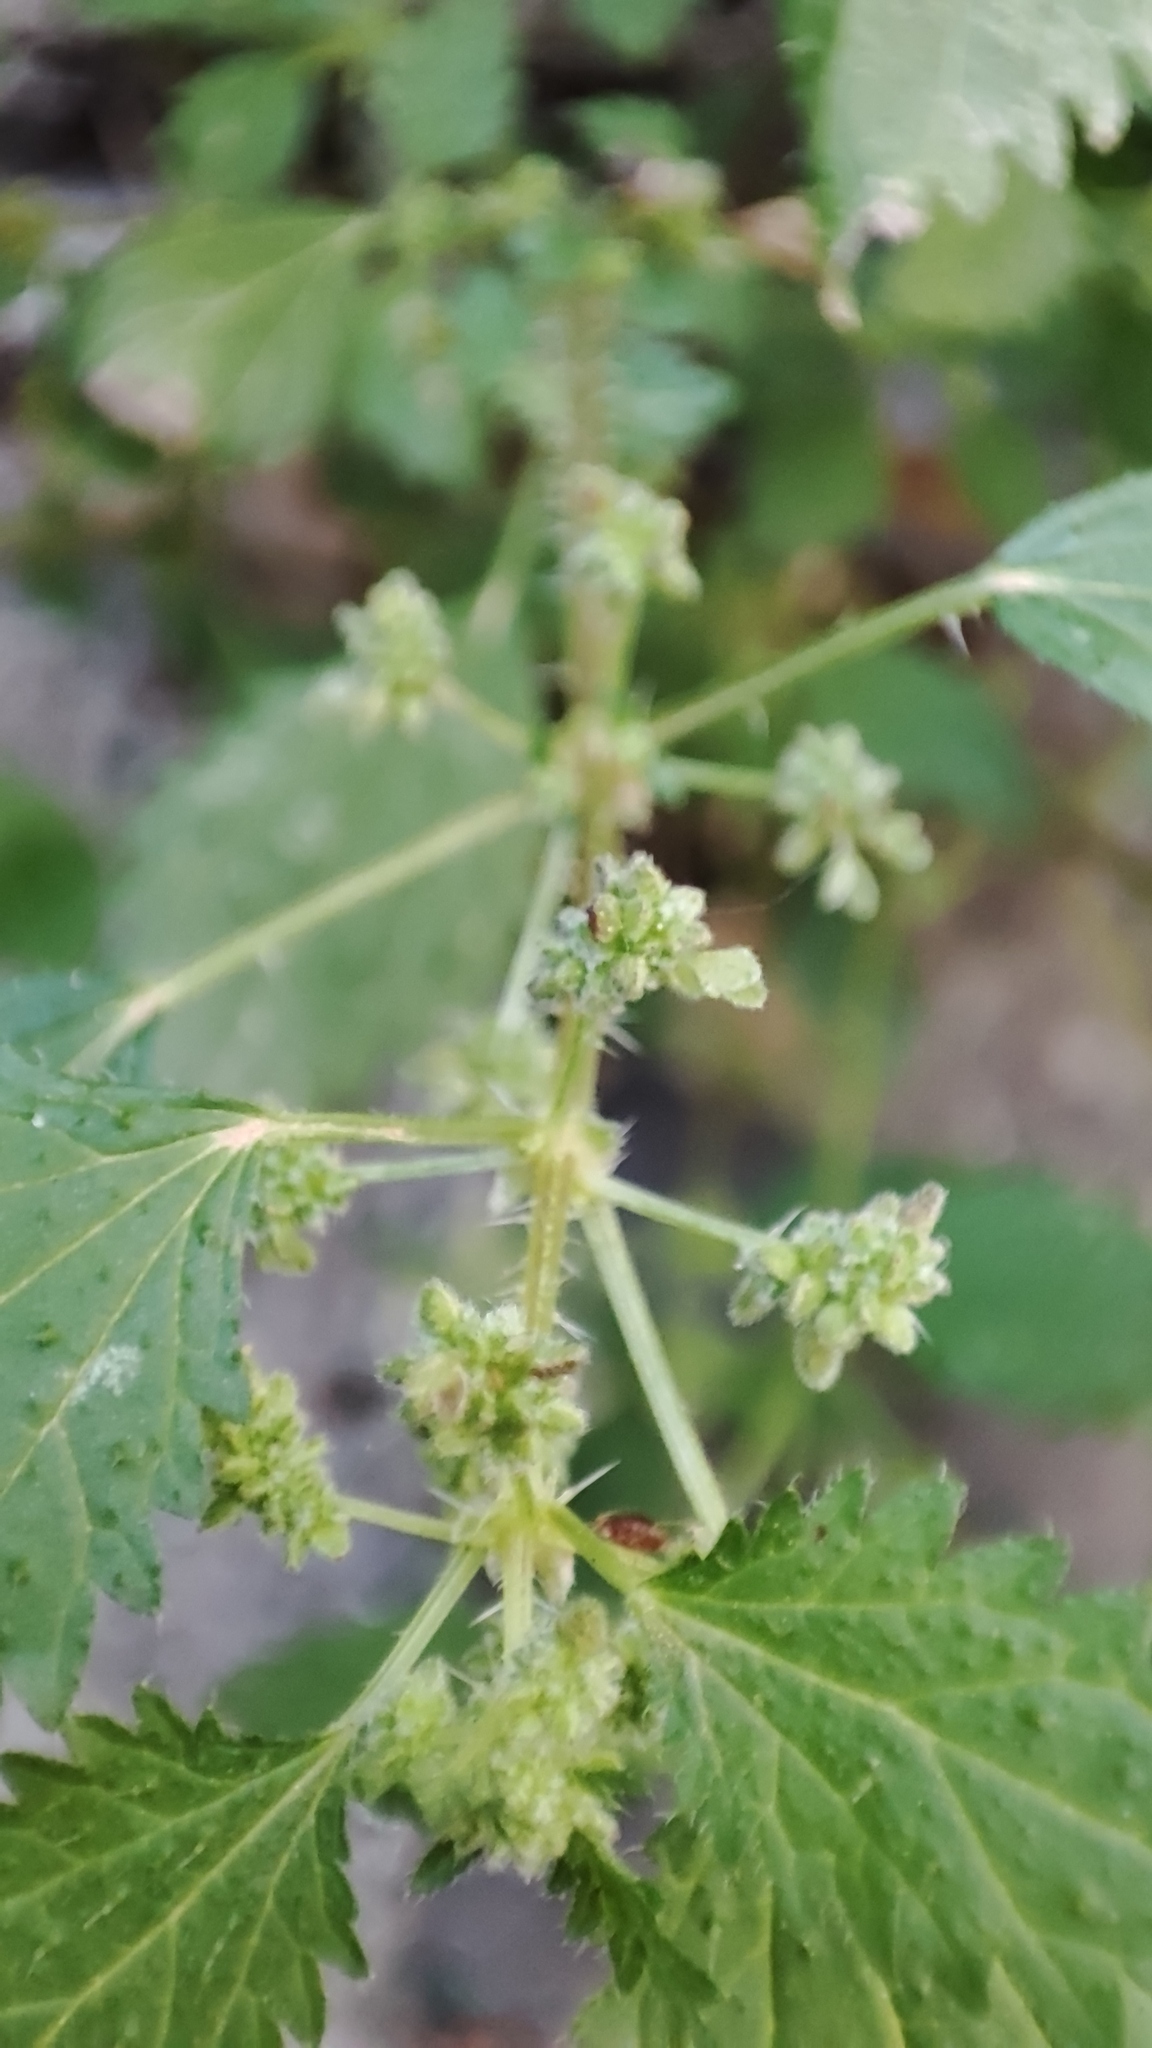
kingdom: Plantae
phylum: Tracheophyta
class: Magnoliopsida
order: Rosales
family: Urticaceae
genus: Urtica
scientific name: Urtica pilulifera
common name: Roman nettle
